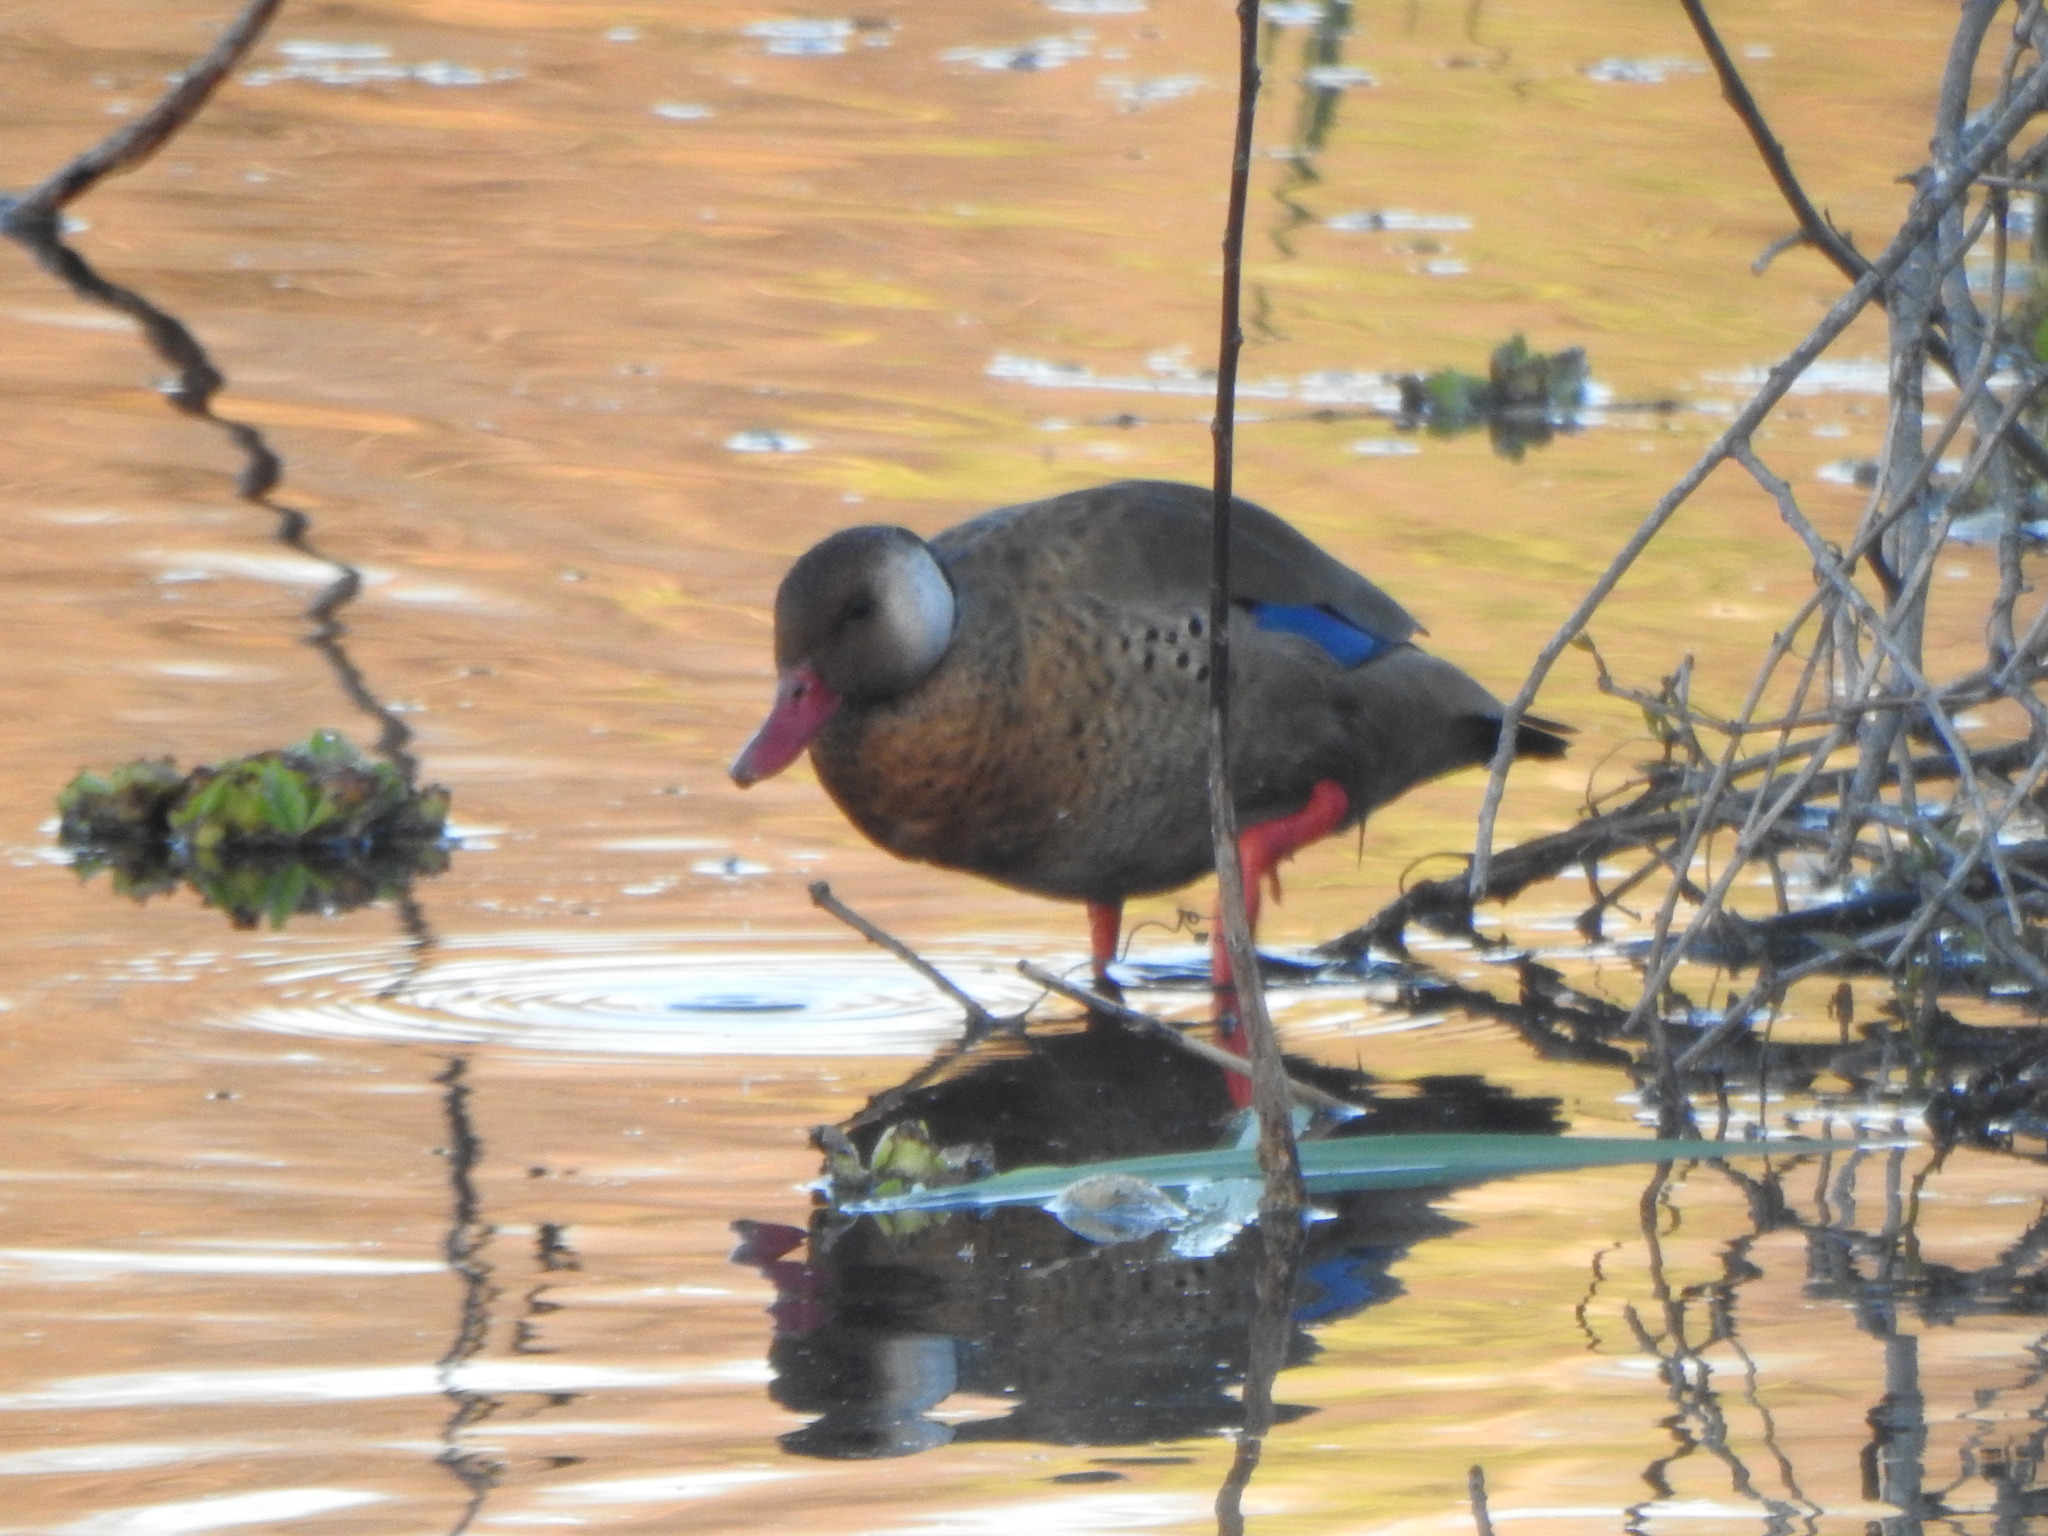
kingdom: Animalia
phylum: Chordata
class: Aves
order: Anseriformes
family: Anatidae
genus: Amazonetta
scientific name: Amazonetta brasiliensis
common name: Brazilian teal
